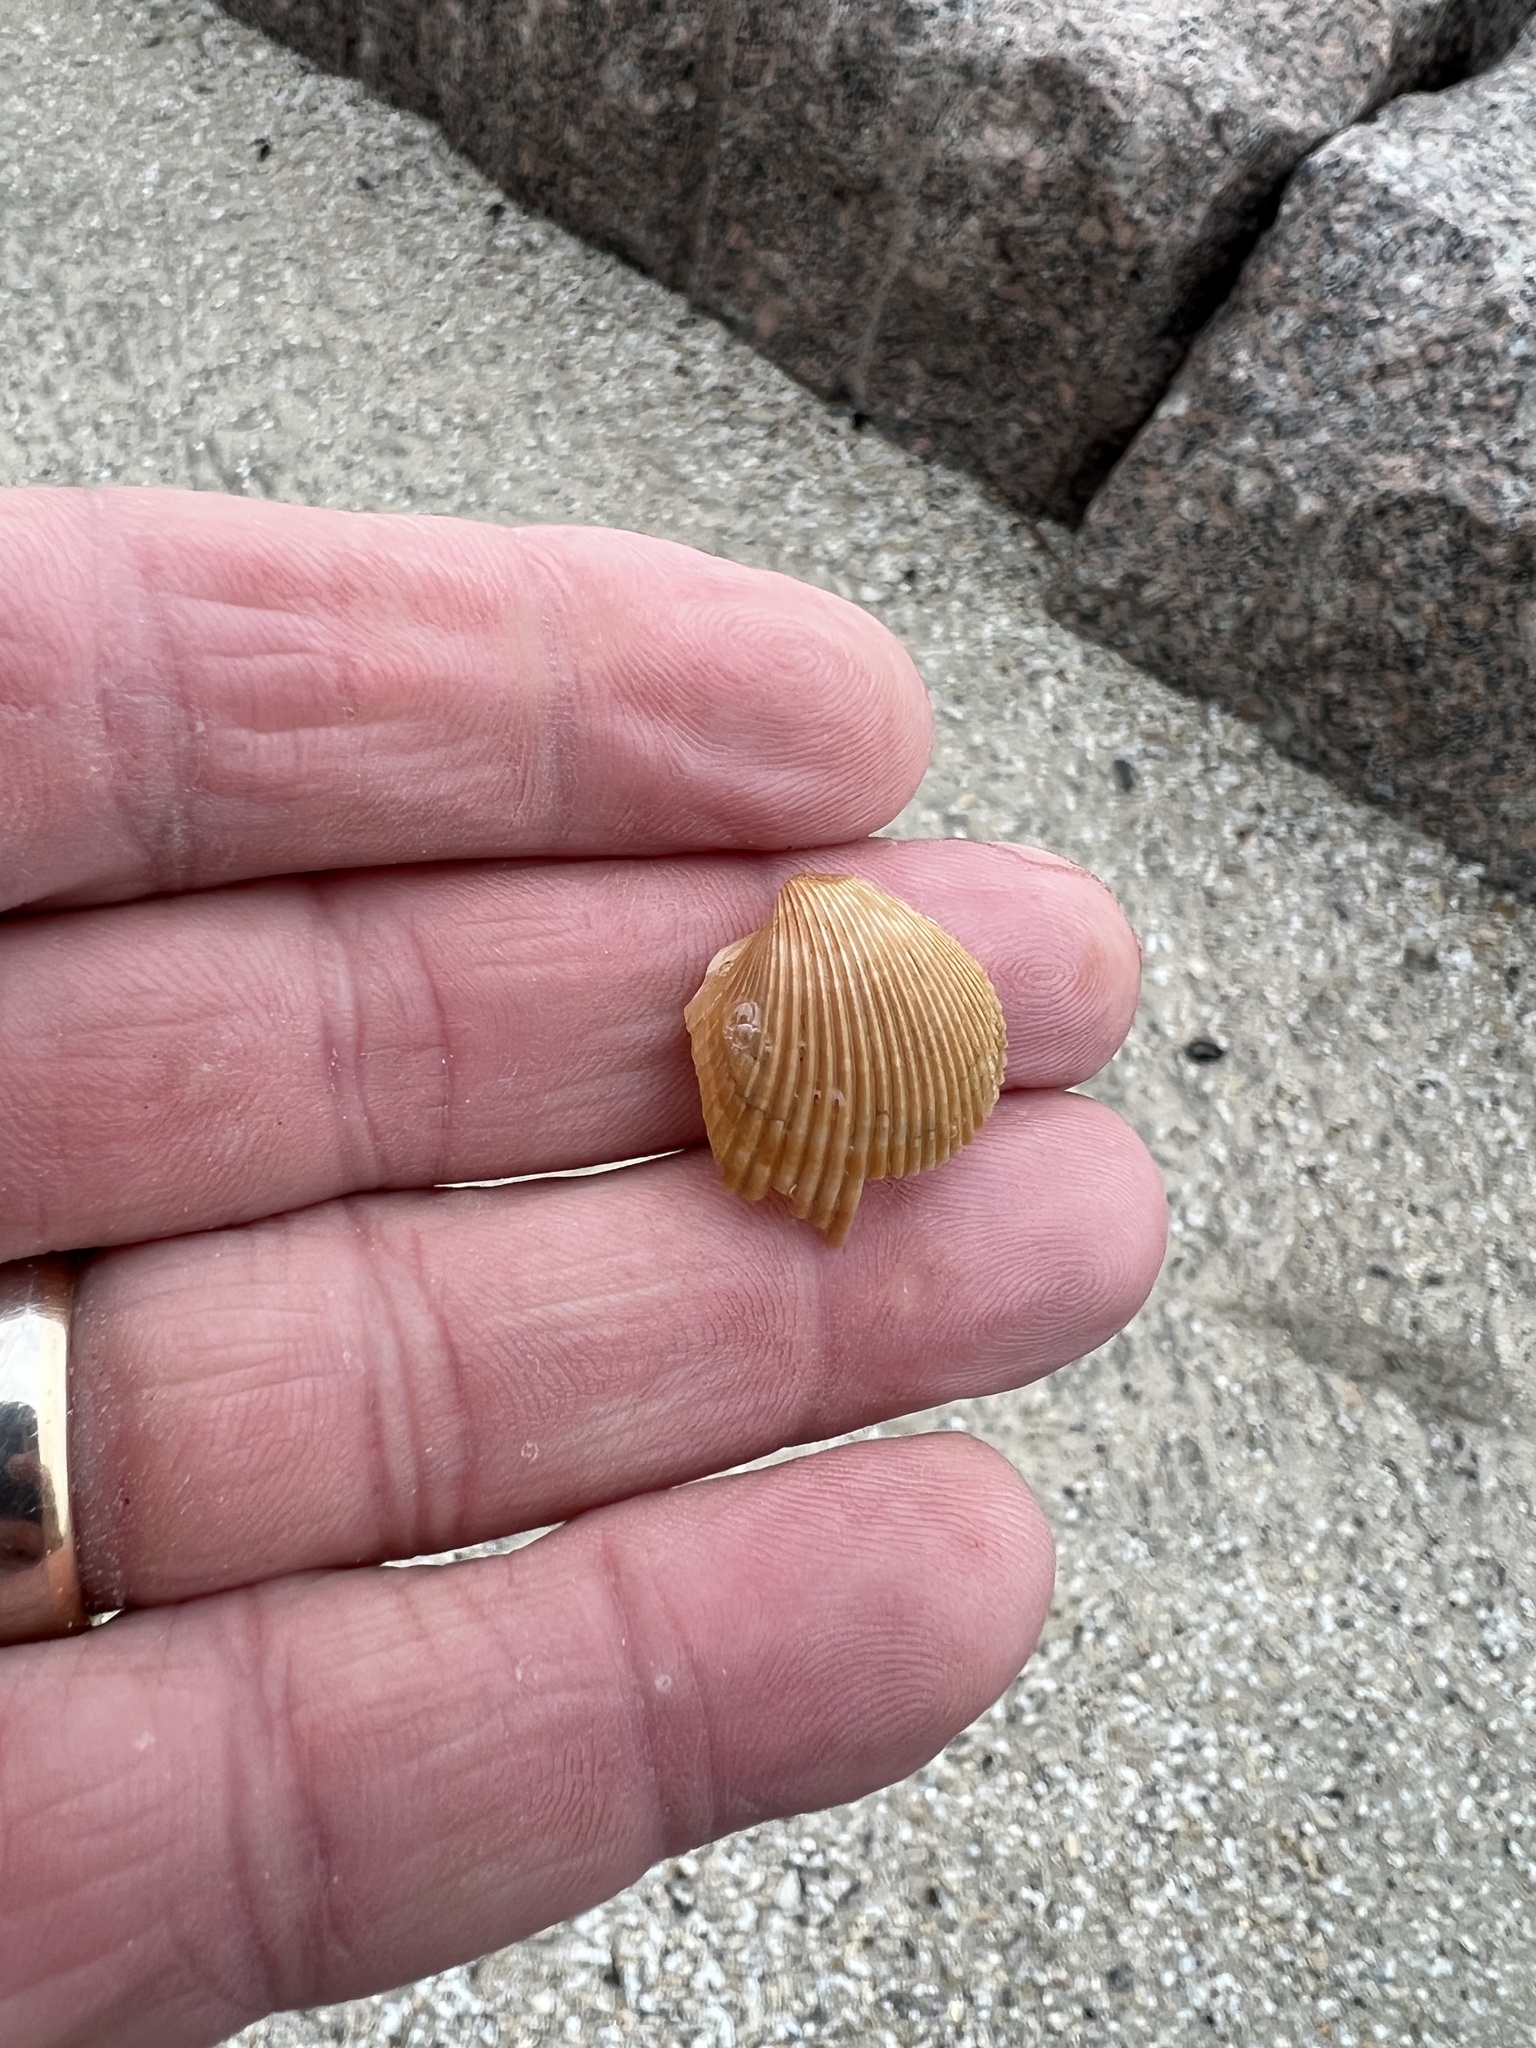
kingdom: Animalia
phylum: Mollusca
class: Bivalvia
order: Cardiida
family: Cardiidae
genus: Dinocardium
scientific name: Dinocardium robustum
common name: Atlantic giant cockle
